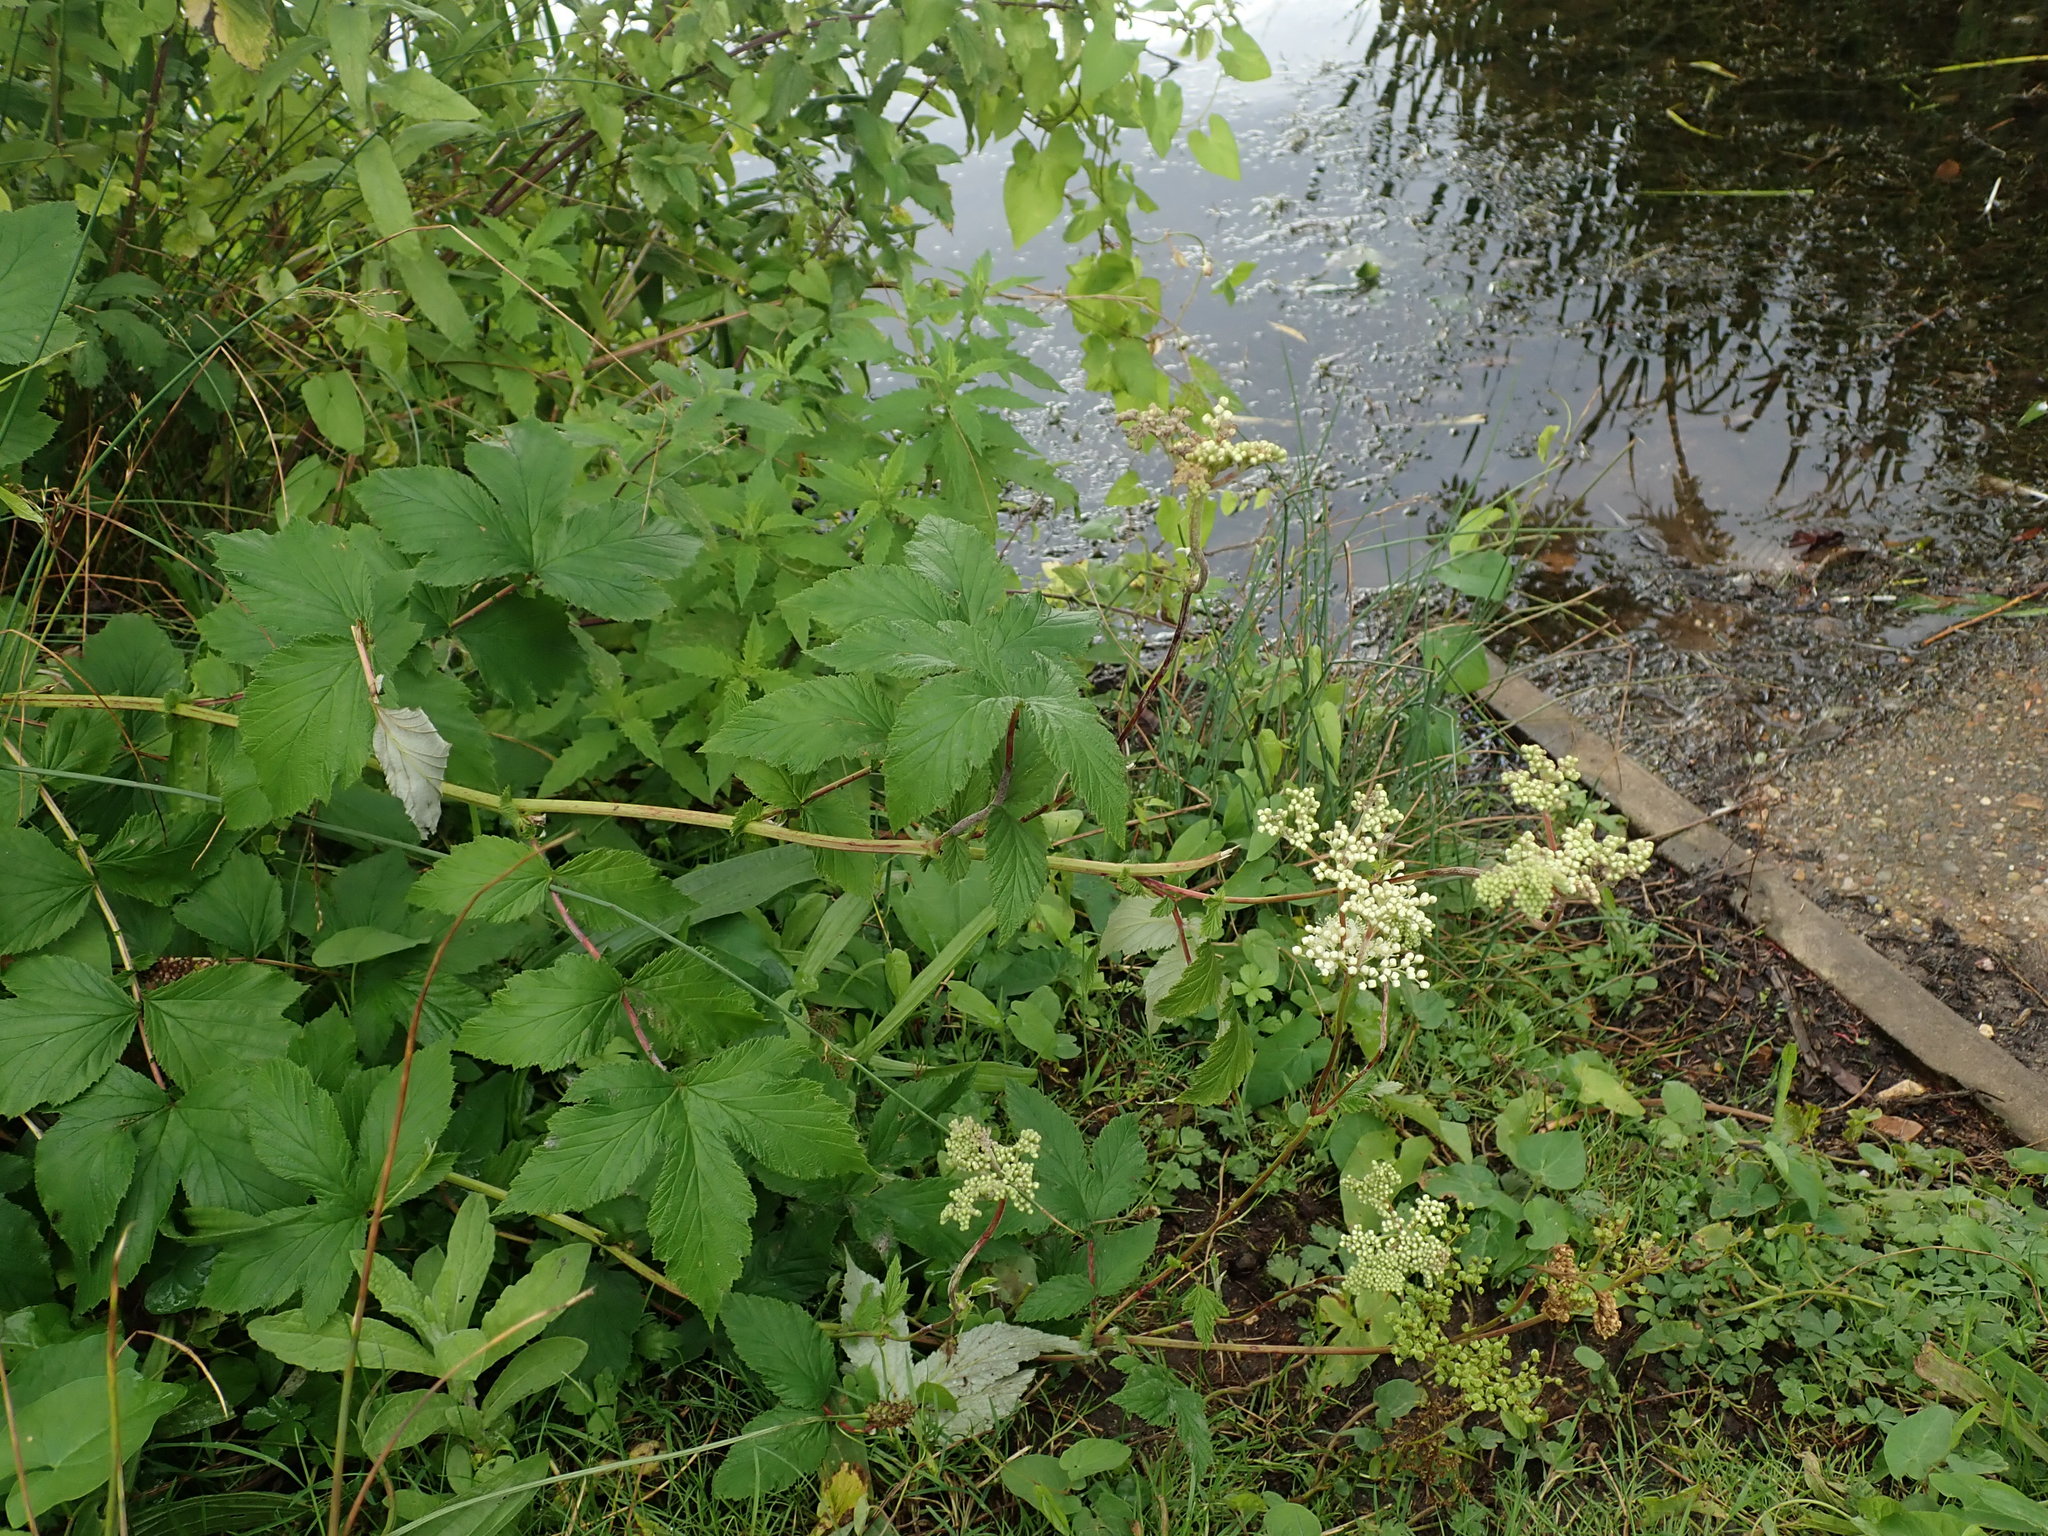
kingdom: Plantae
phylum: Tracheophyta
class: Magnoliopsida
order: Rosales
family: Rosaceae
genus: Filipendula
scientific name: Filipendula ulmaria
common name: Meadowsweet
